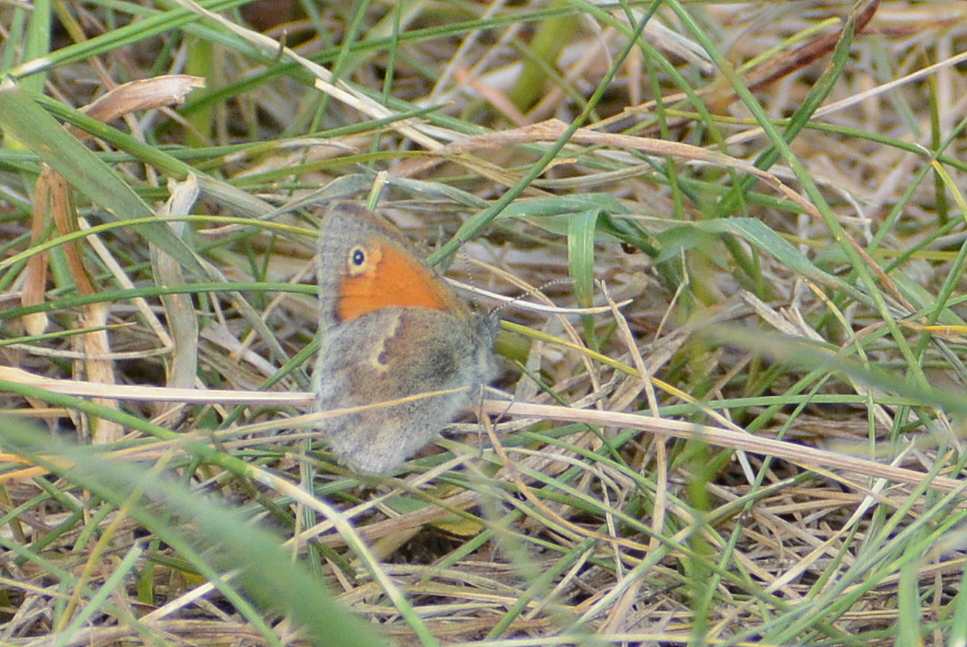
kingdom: Animalia
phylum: Arthropoda
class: Insecta
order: Lepidoptera
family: Nymphalidae
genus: Coenonympha
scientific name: Coenonympha pamphilus
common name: Small heath
